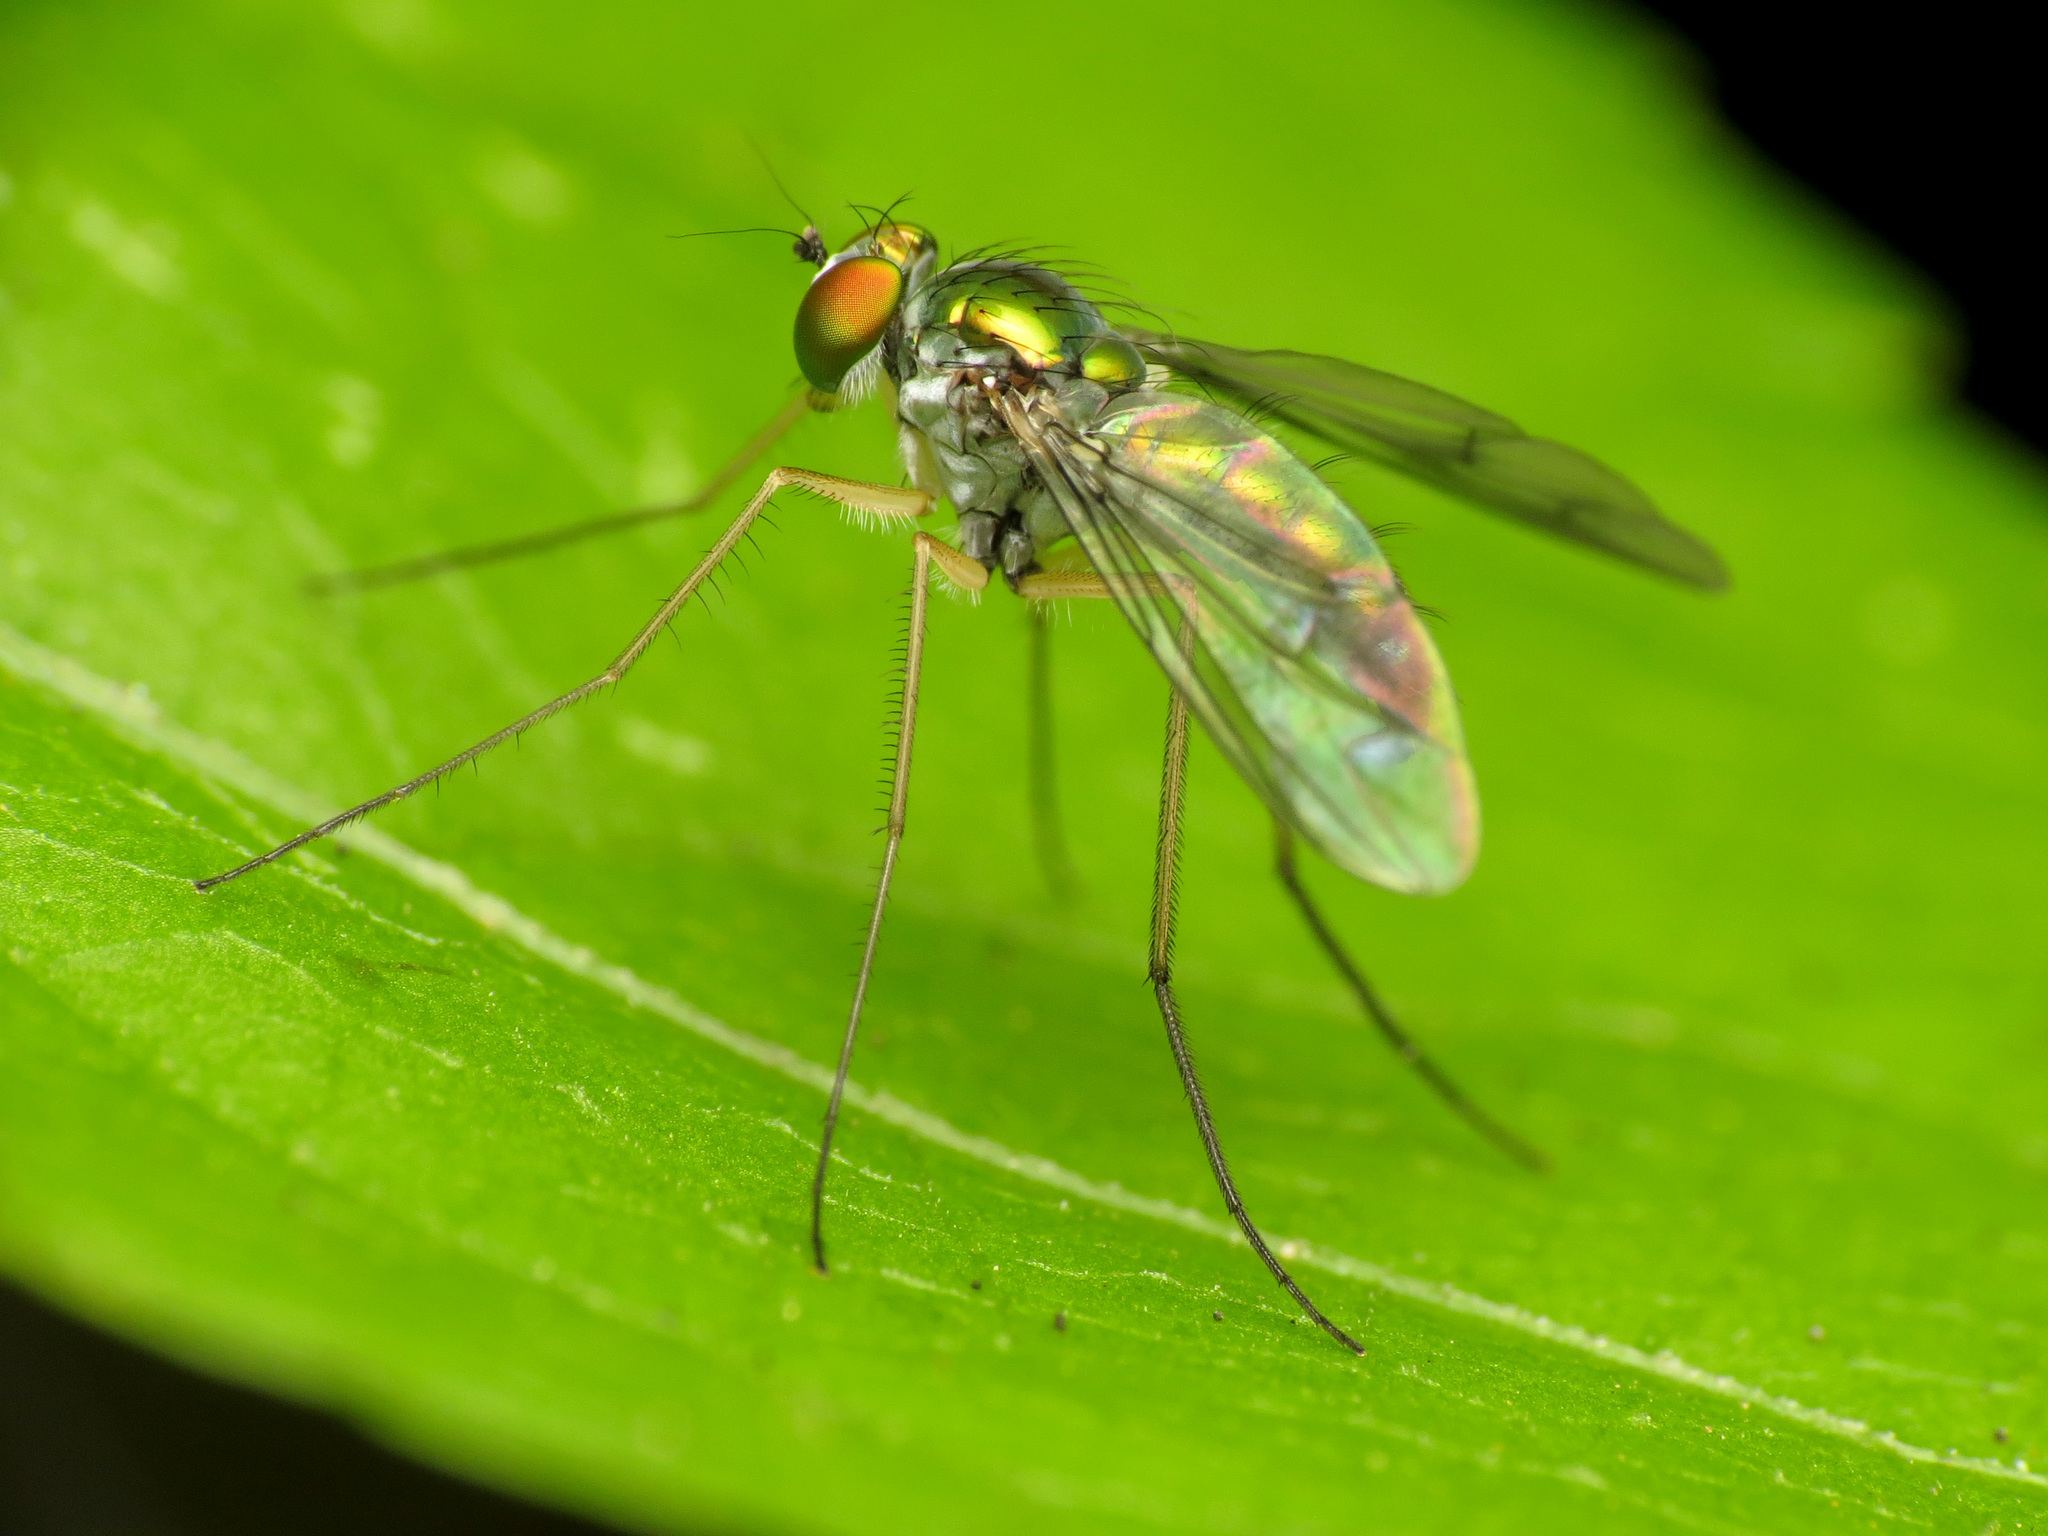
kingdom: Animalia
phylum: Arthropoda
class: Insecta
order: Diptera
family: Dolichopodidae
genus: Condylostylus
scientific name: Condylostylus sipho
